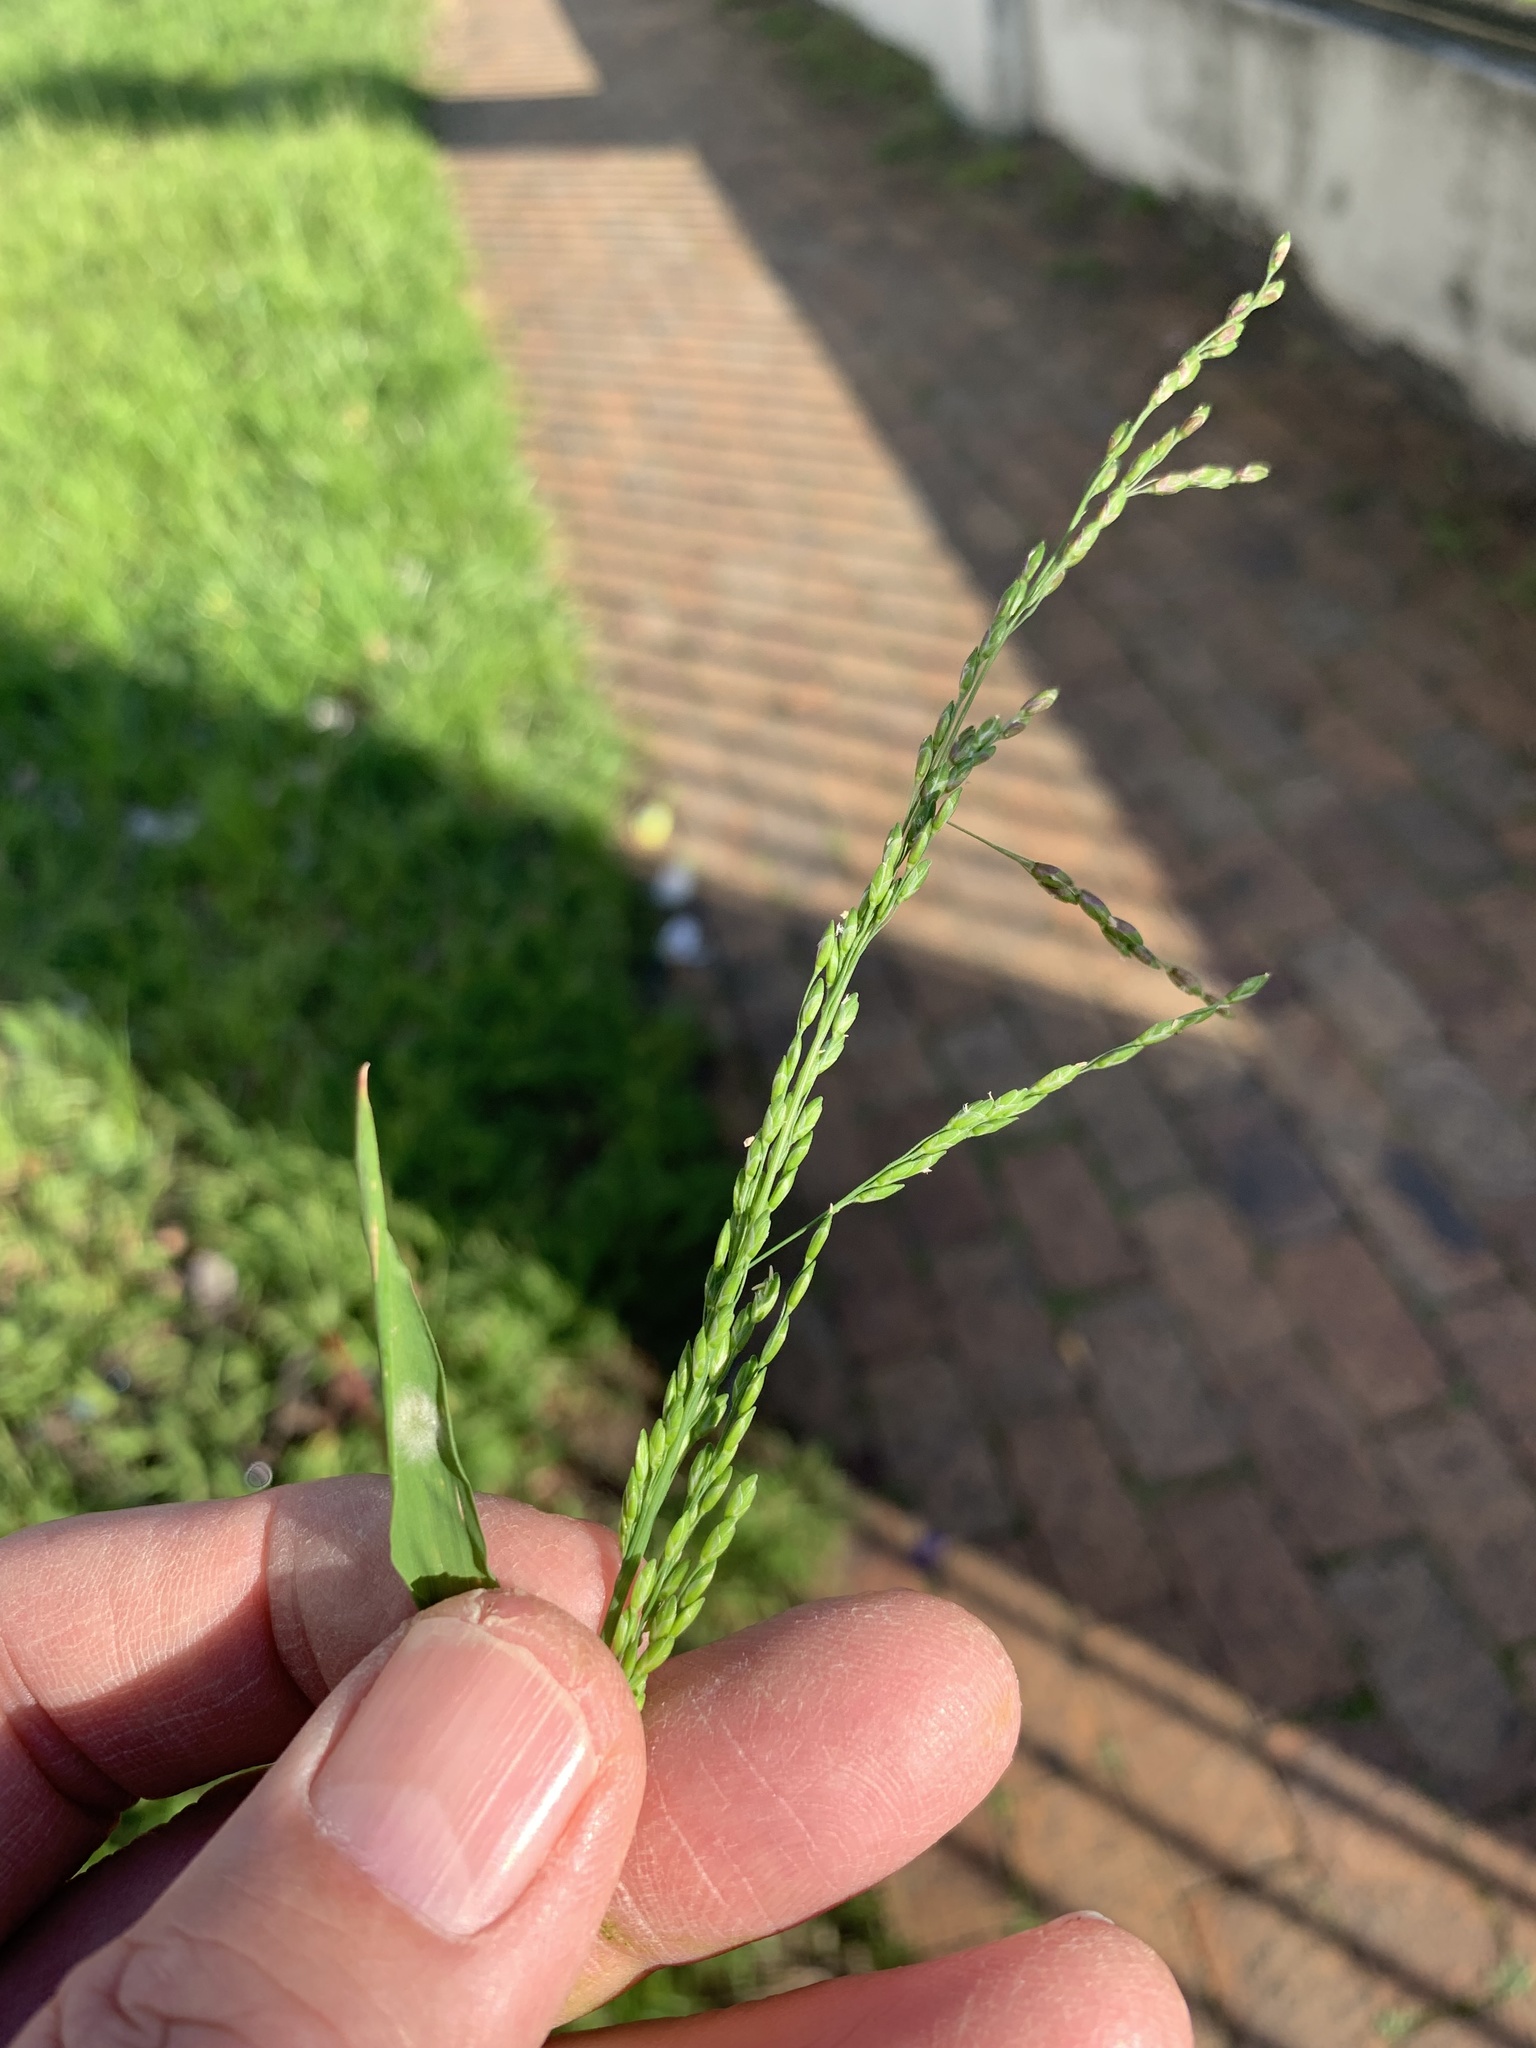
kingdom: Plantae
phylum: Tracheophyta
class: Liliopsida
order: Poales
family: Poaceae
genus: Ehrharta
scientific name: Ehrharta erecta
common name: Panic veldtgrass
